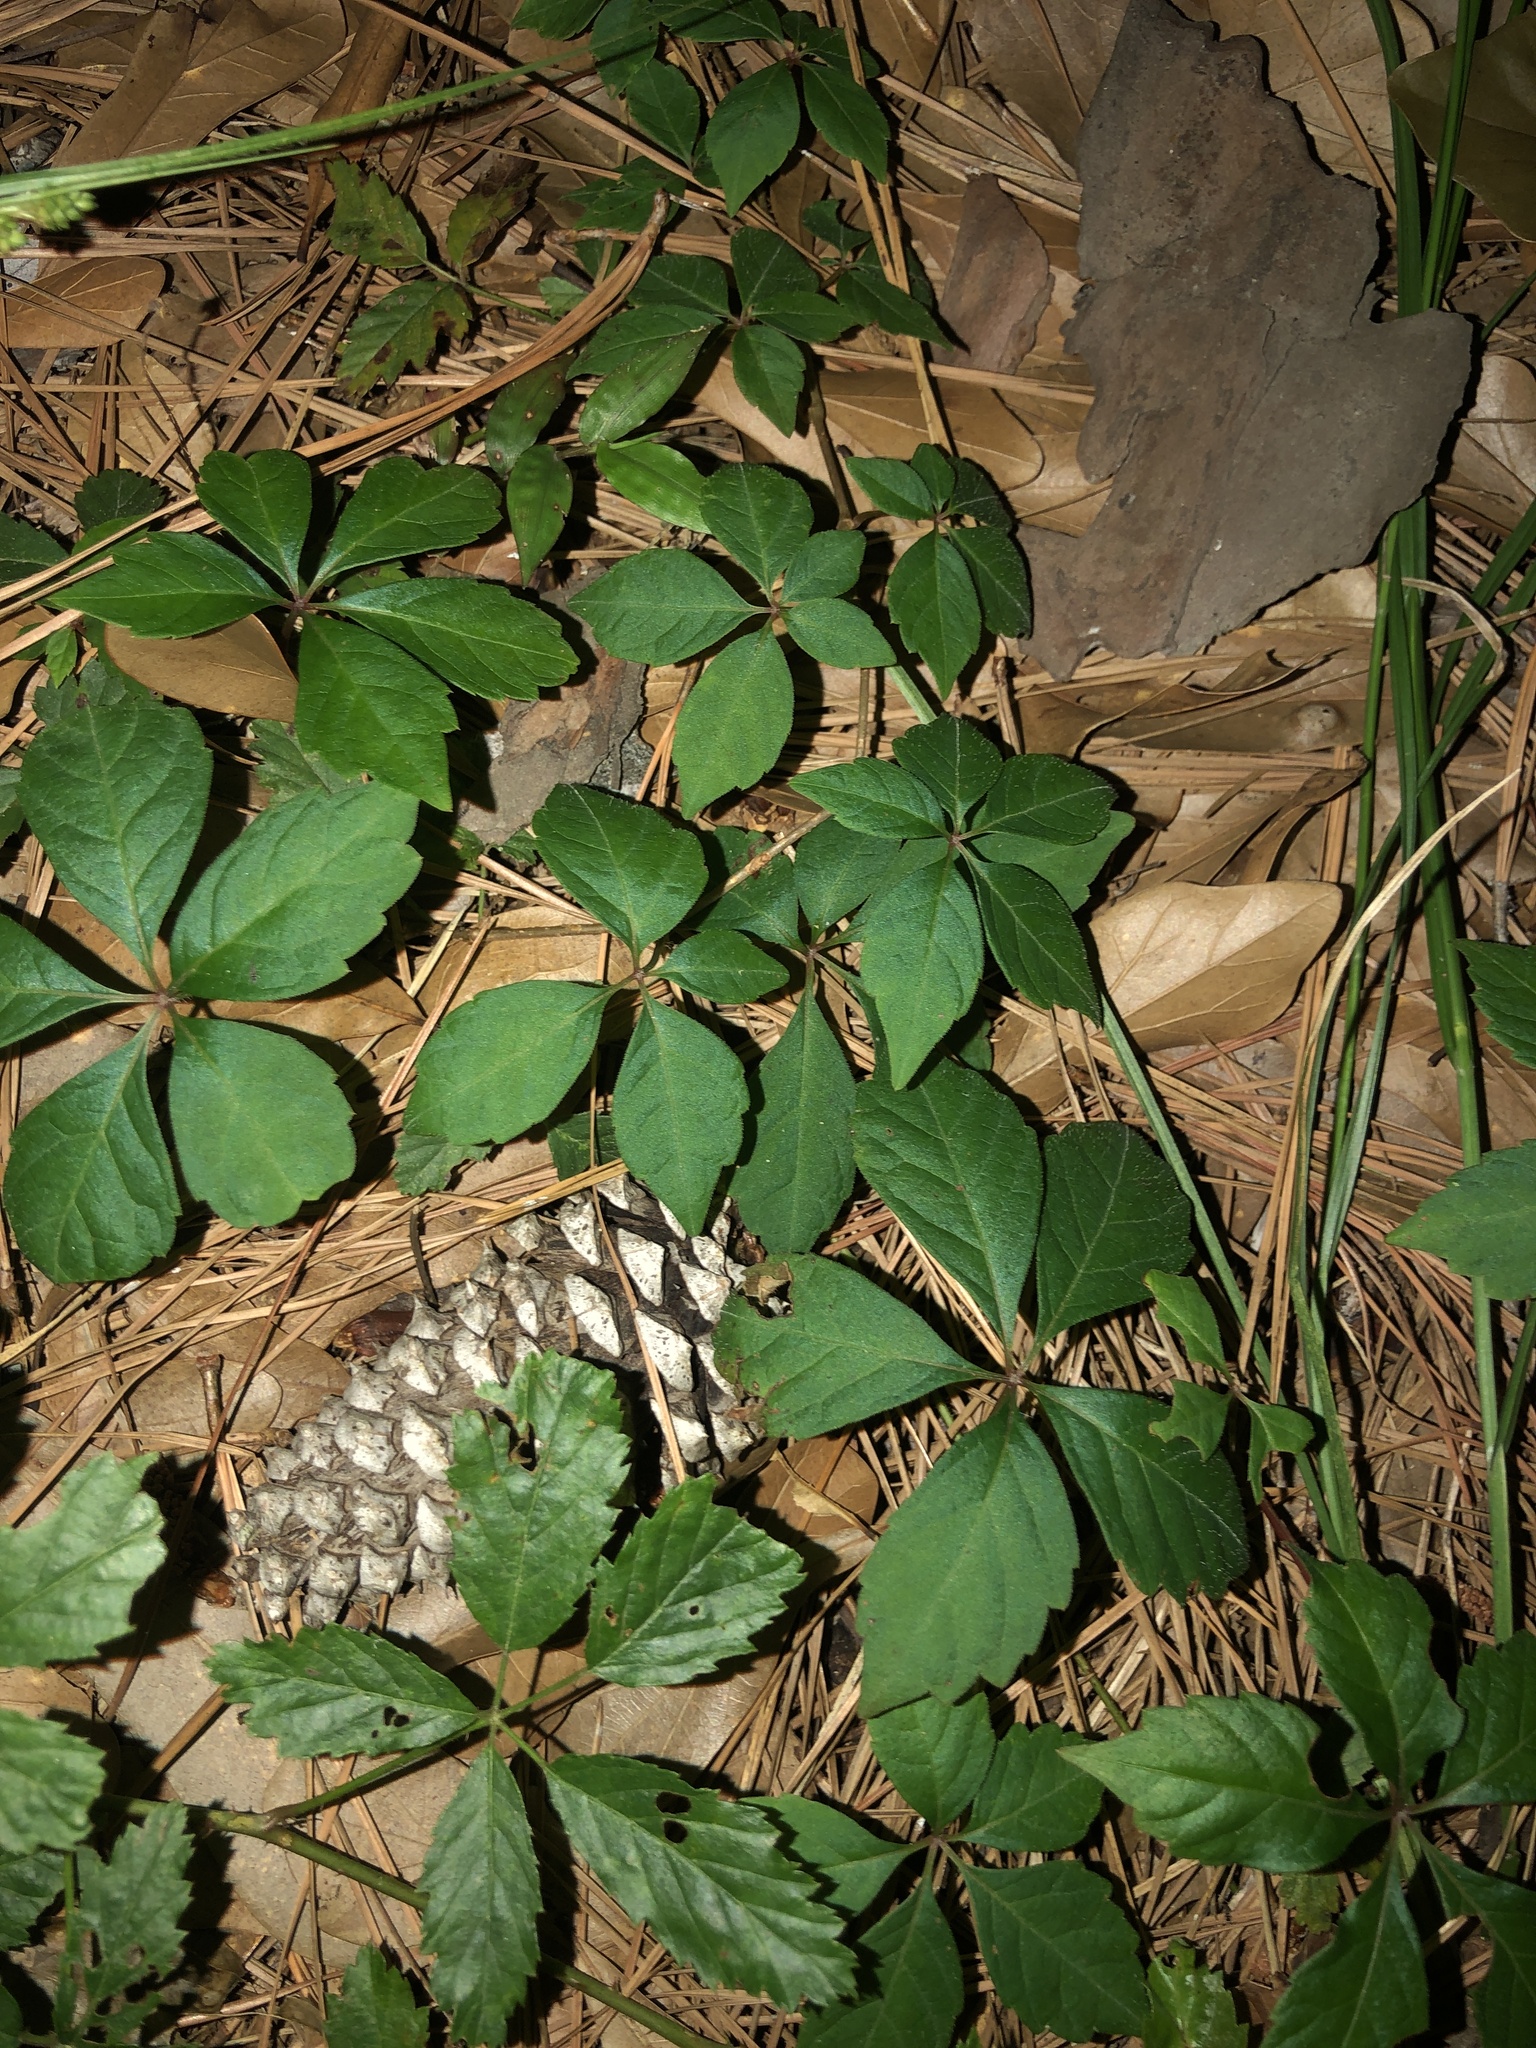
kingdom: Plantae
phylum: Tracheophyta
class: Magnoliopsida
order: Vitales
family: Vitaceae
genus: Parthenocissus
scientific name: Parthenocissus quinquefolia
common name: Virginia-creeper
